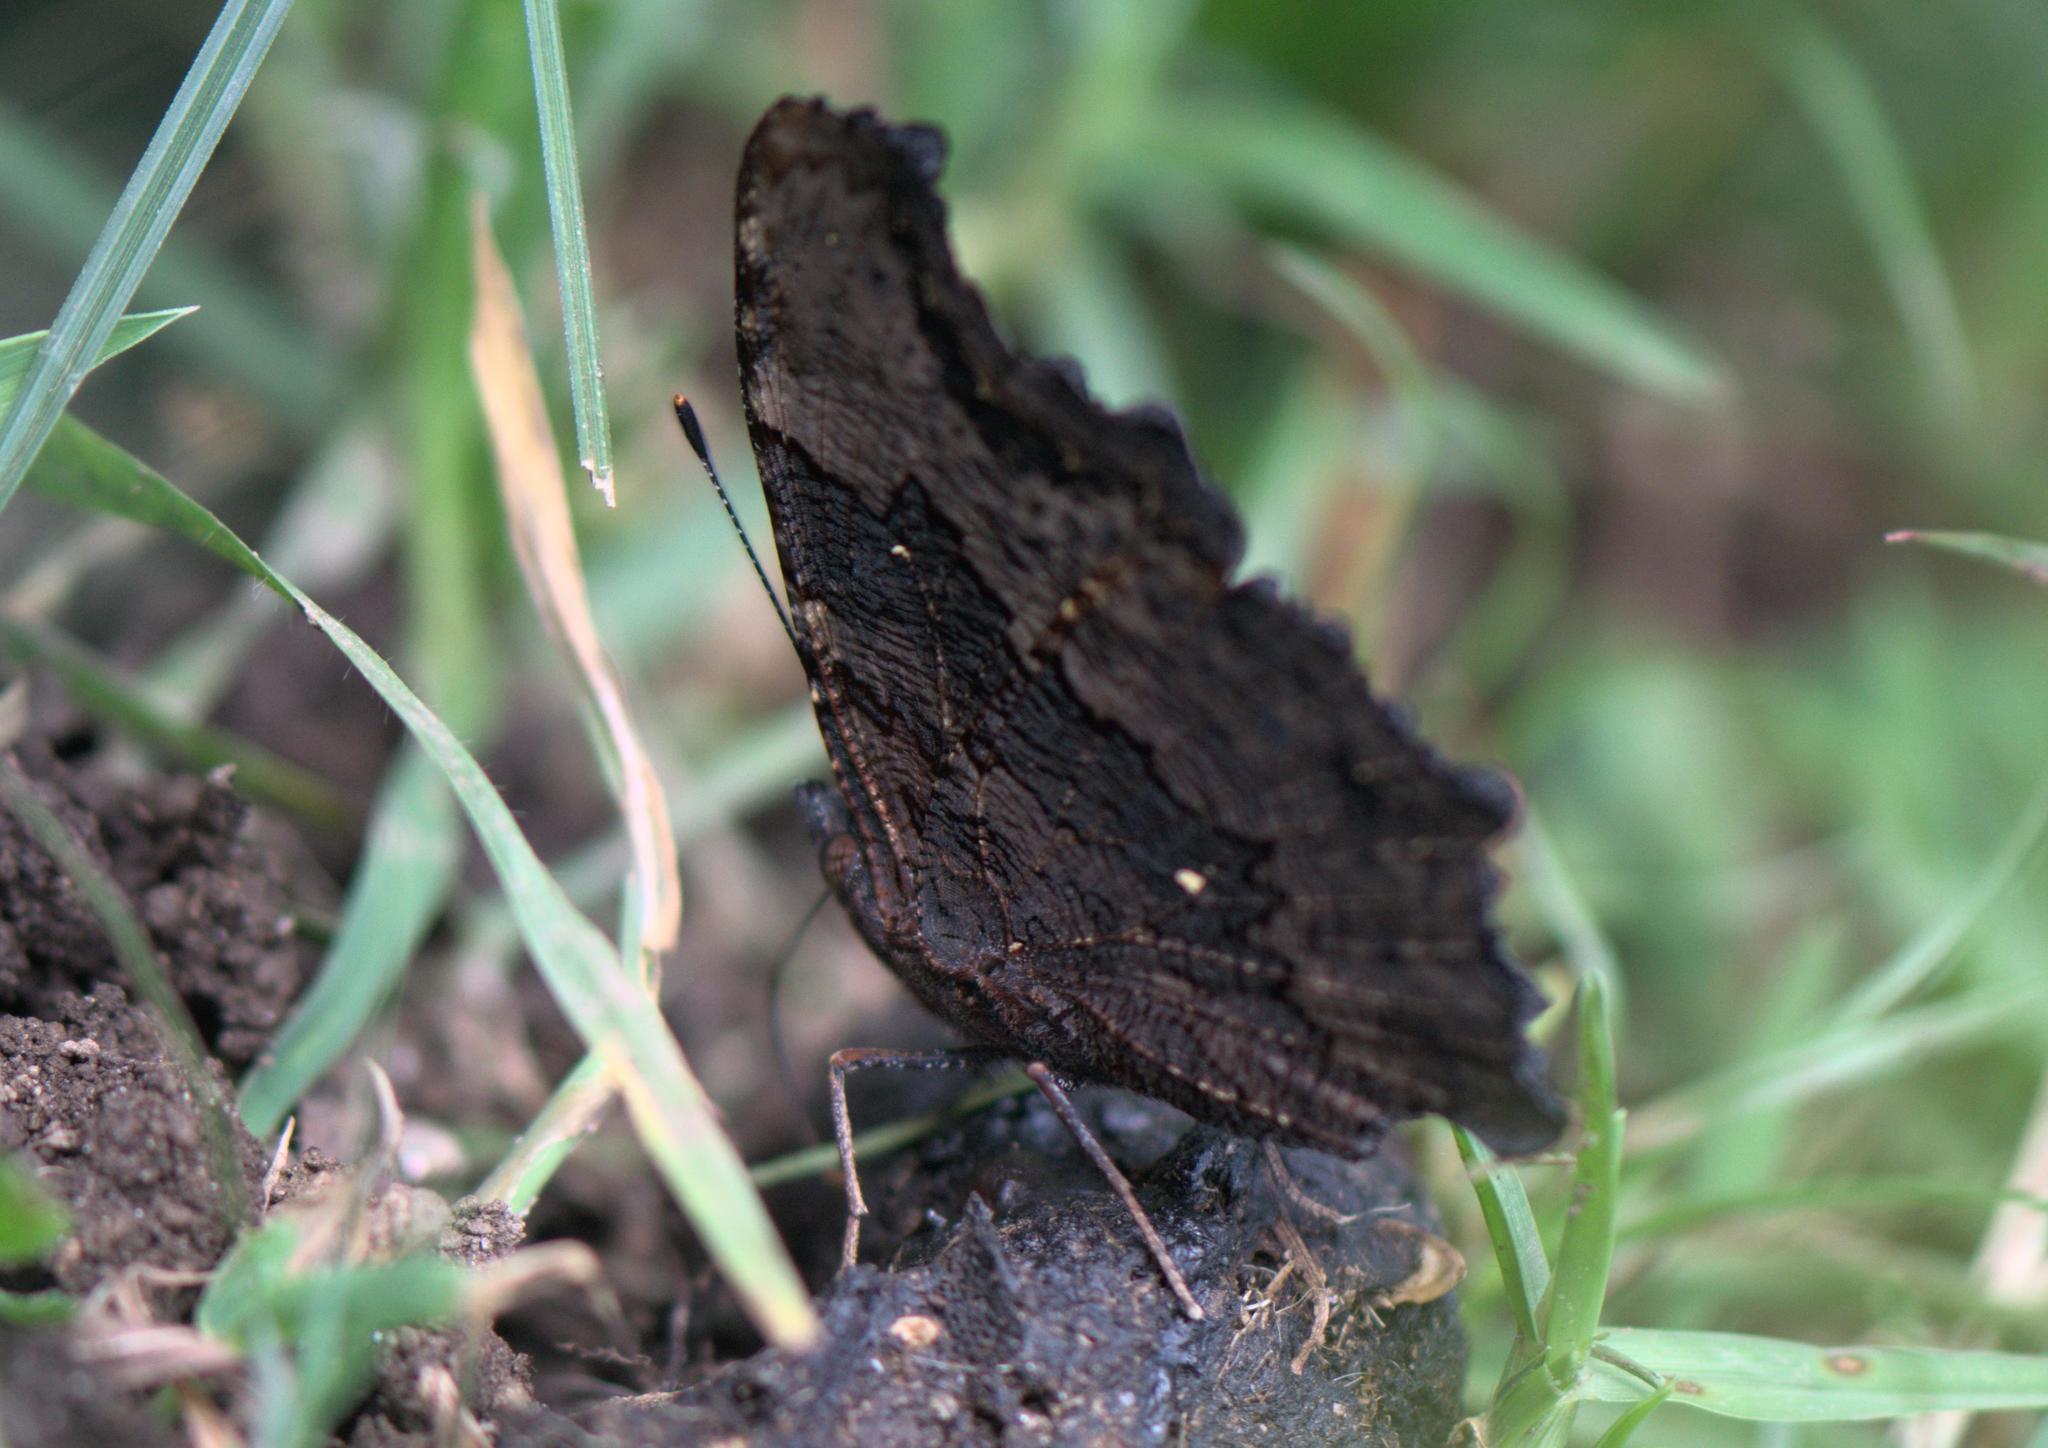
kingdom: Animalia
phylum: Arthropoda
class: Insecta
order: Lepidoptera
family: Nymphalidae
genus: Vanessa
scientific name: Vanessa Kaniska canace
